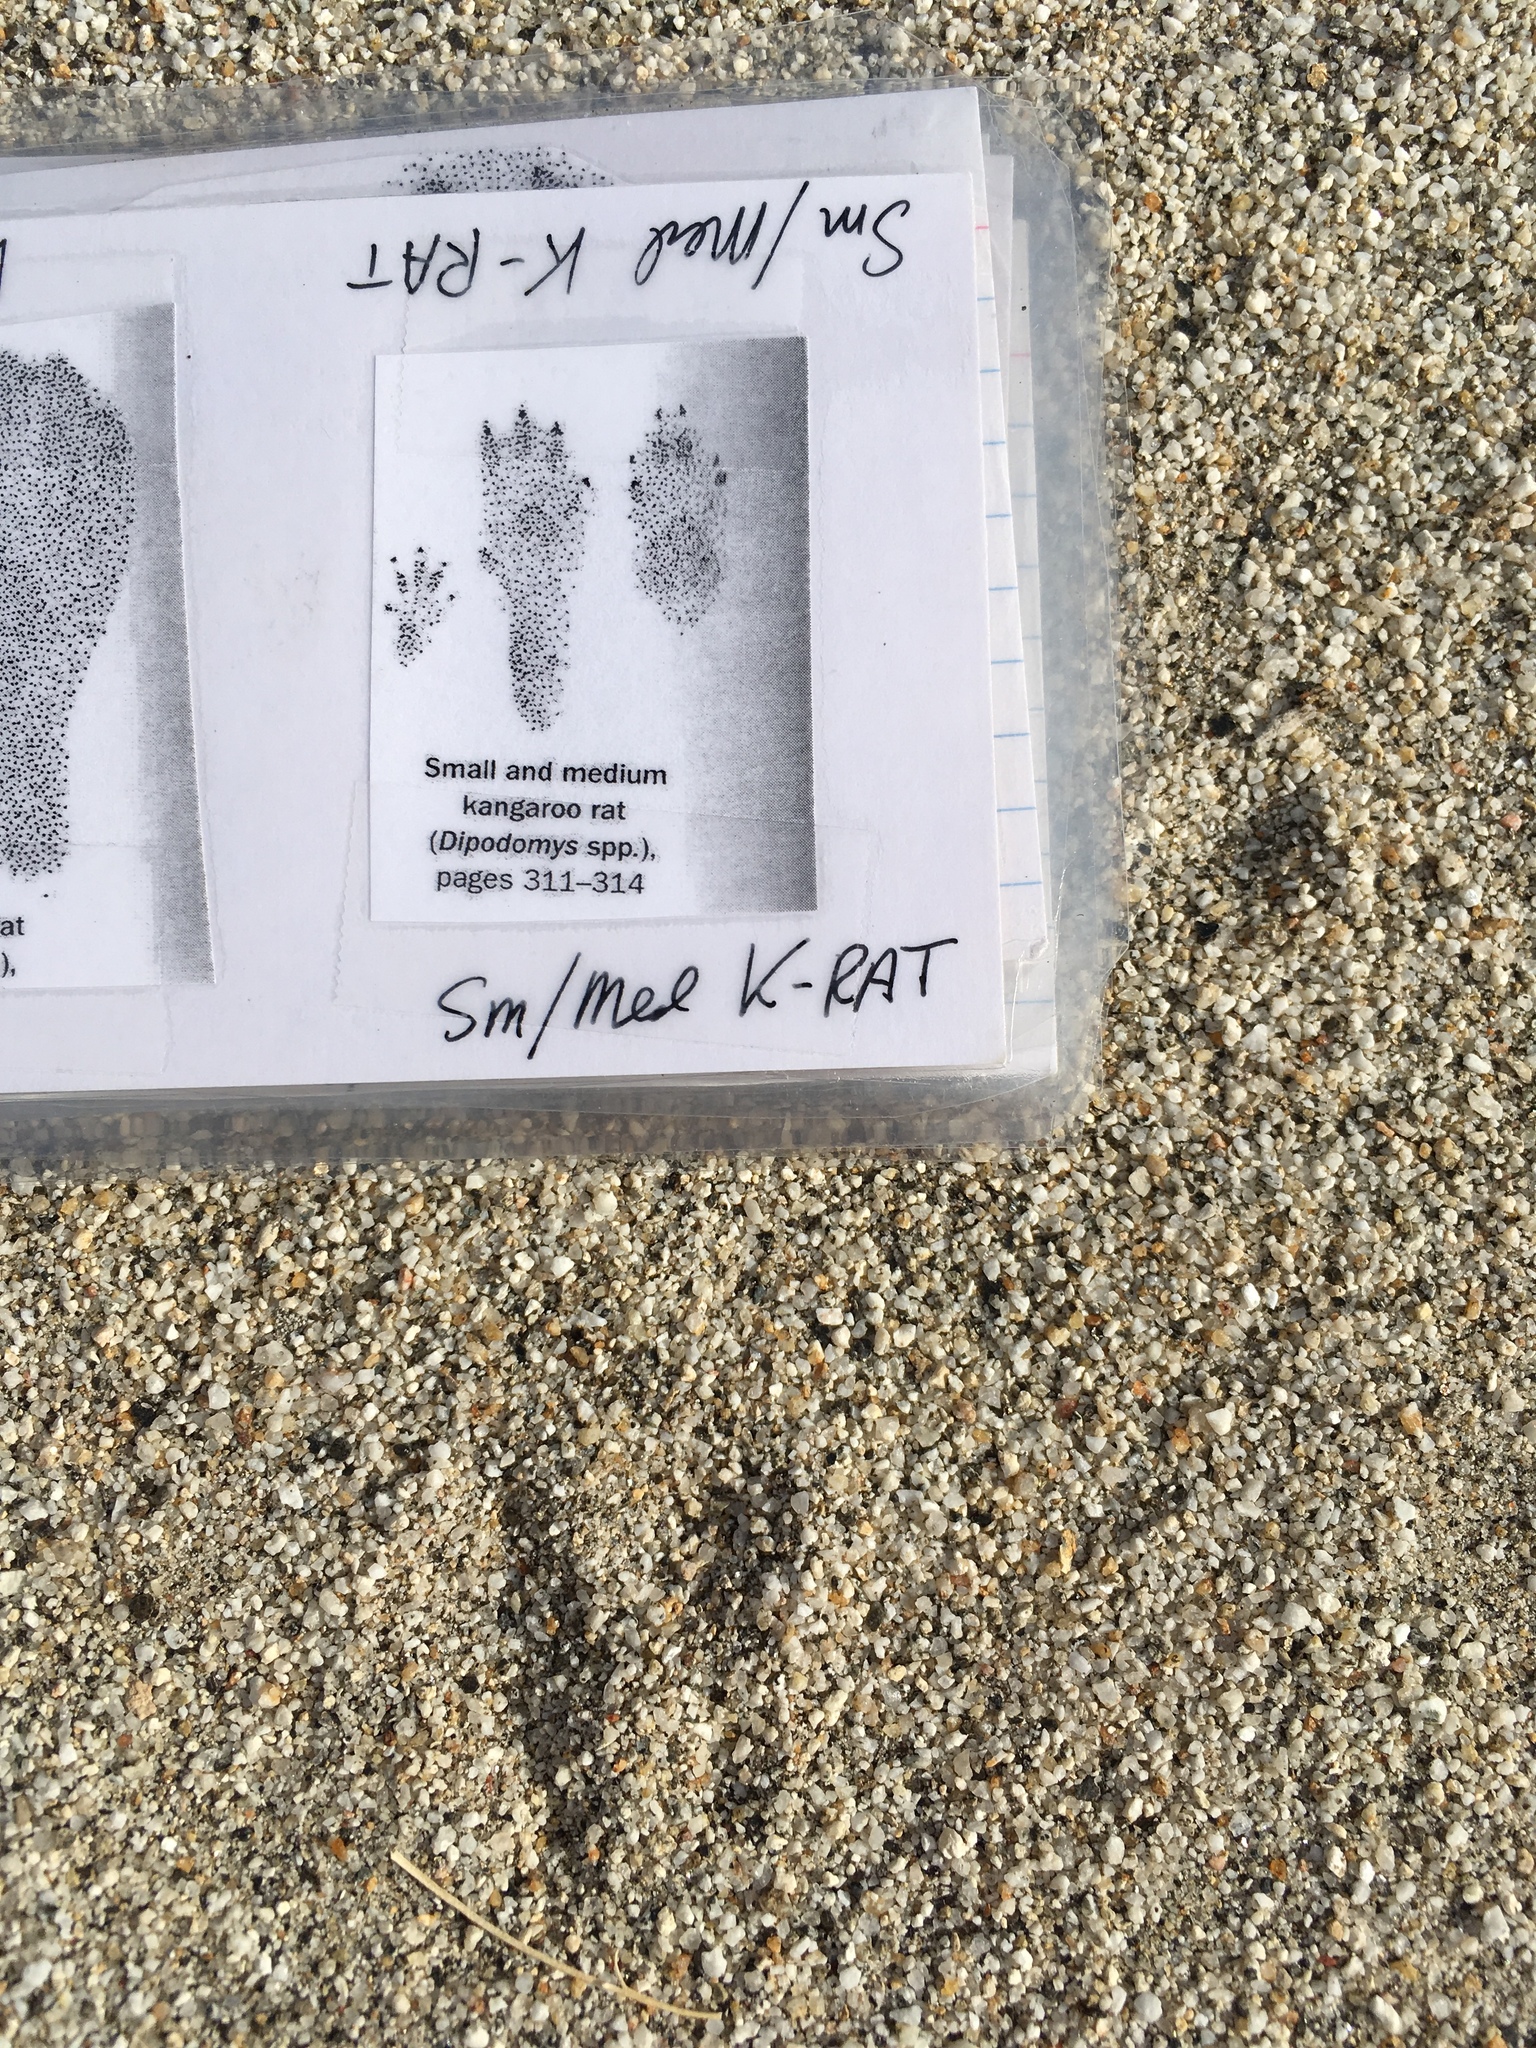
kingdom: Animalia
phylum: Chordata
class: Mammalia
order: Rodentia
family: Heteromyidae
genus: Dipodomys
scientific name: Dipodomys merriami
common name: Merriam's kangaroo rat
